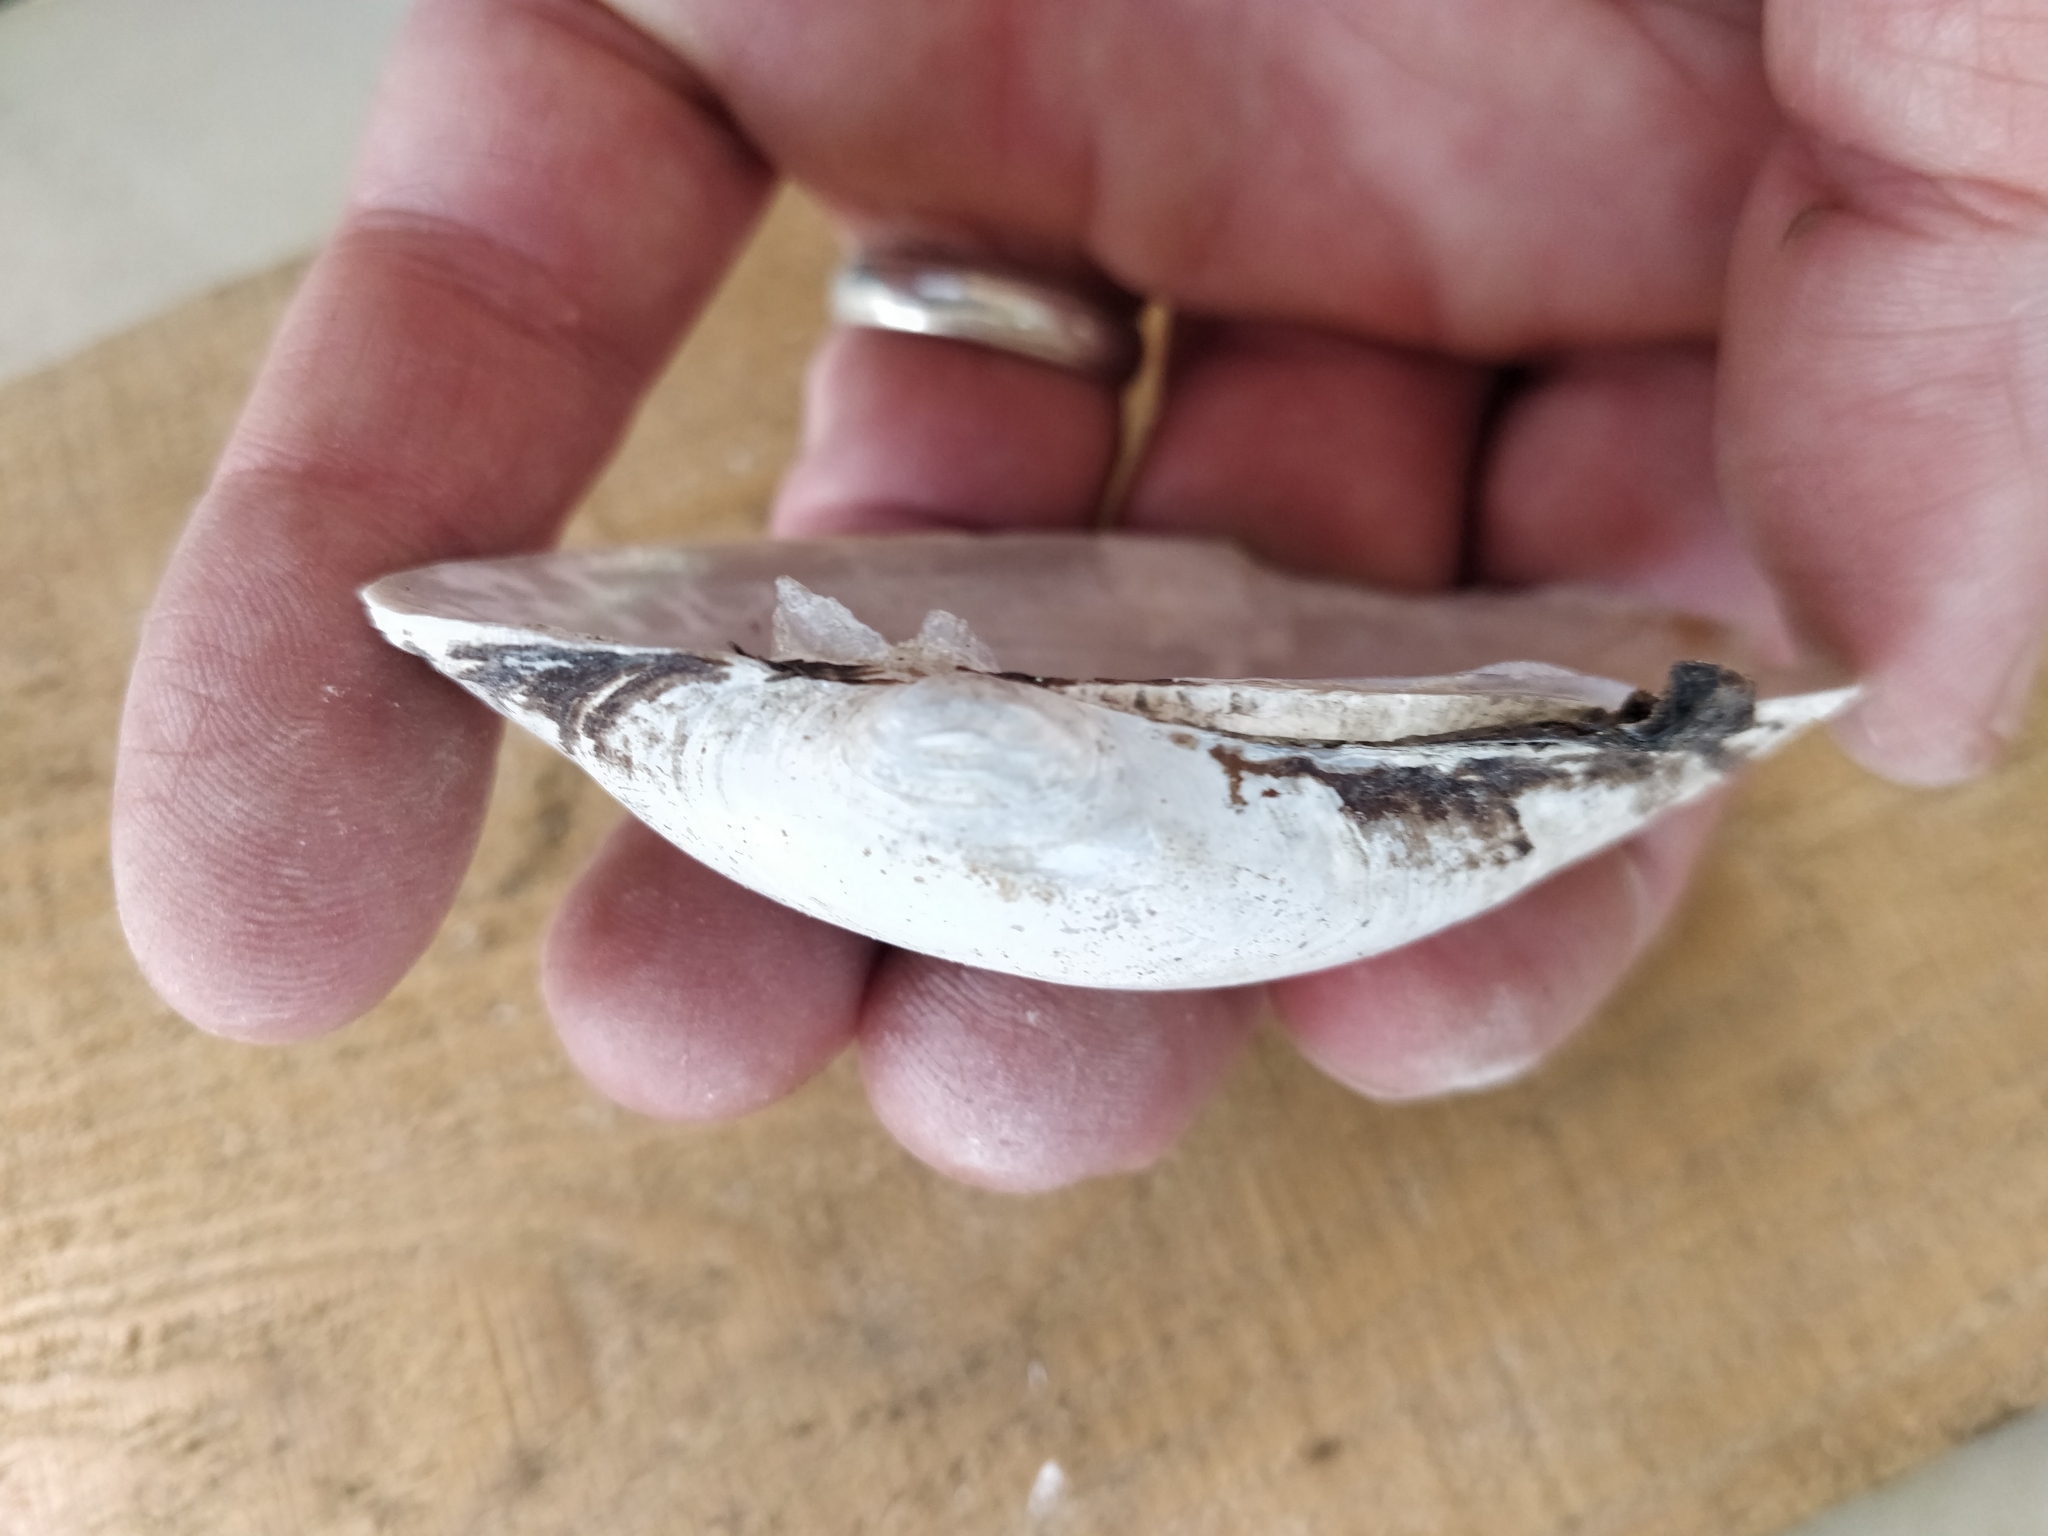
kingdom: Animalia
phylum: Mollusca
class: Bivalvia
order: Unionida
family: Unionidae
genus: Lampsilis
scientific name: Lampsilis cardium
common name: Plain pocketbook
